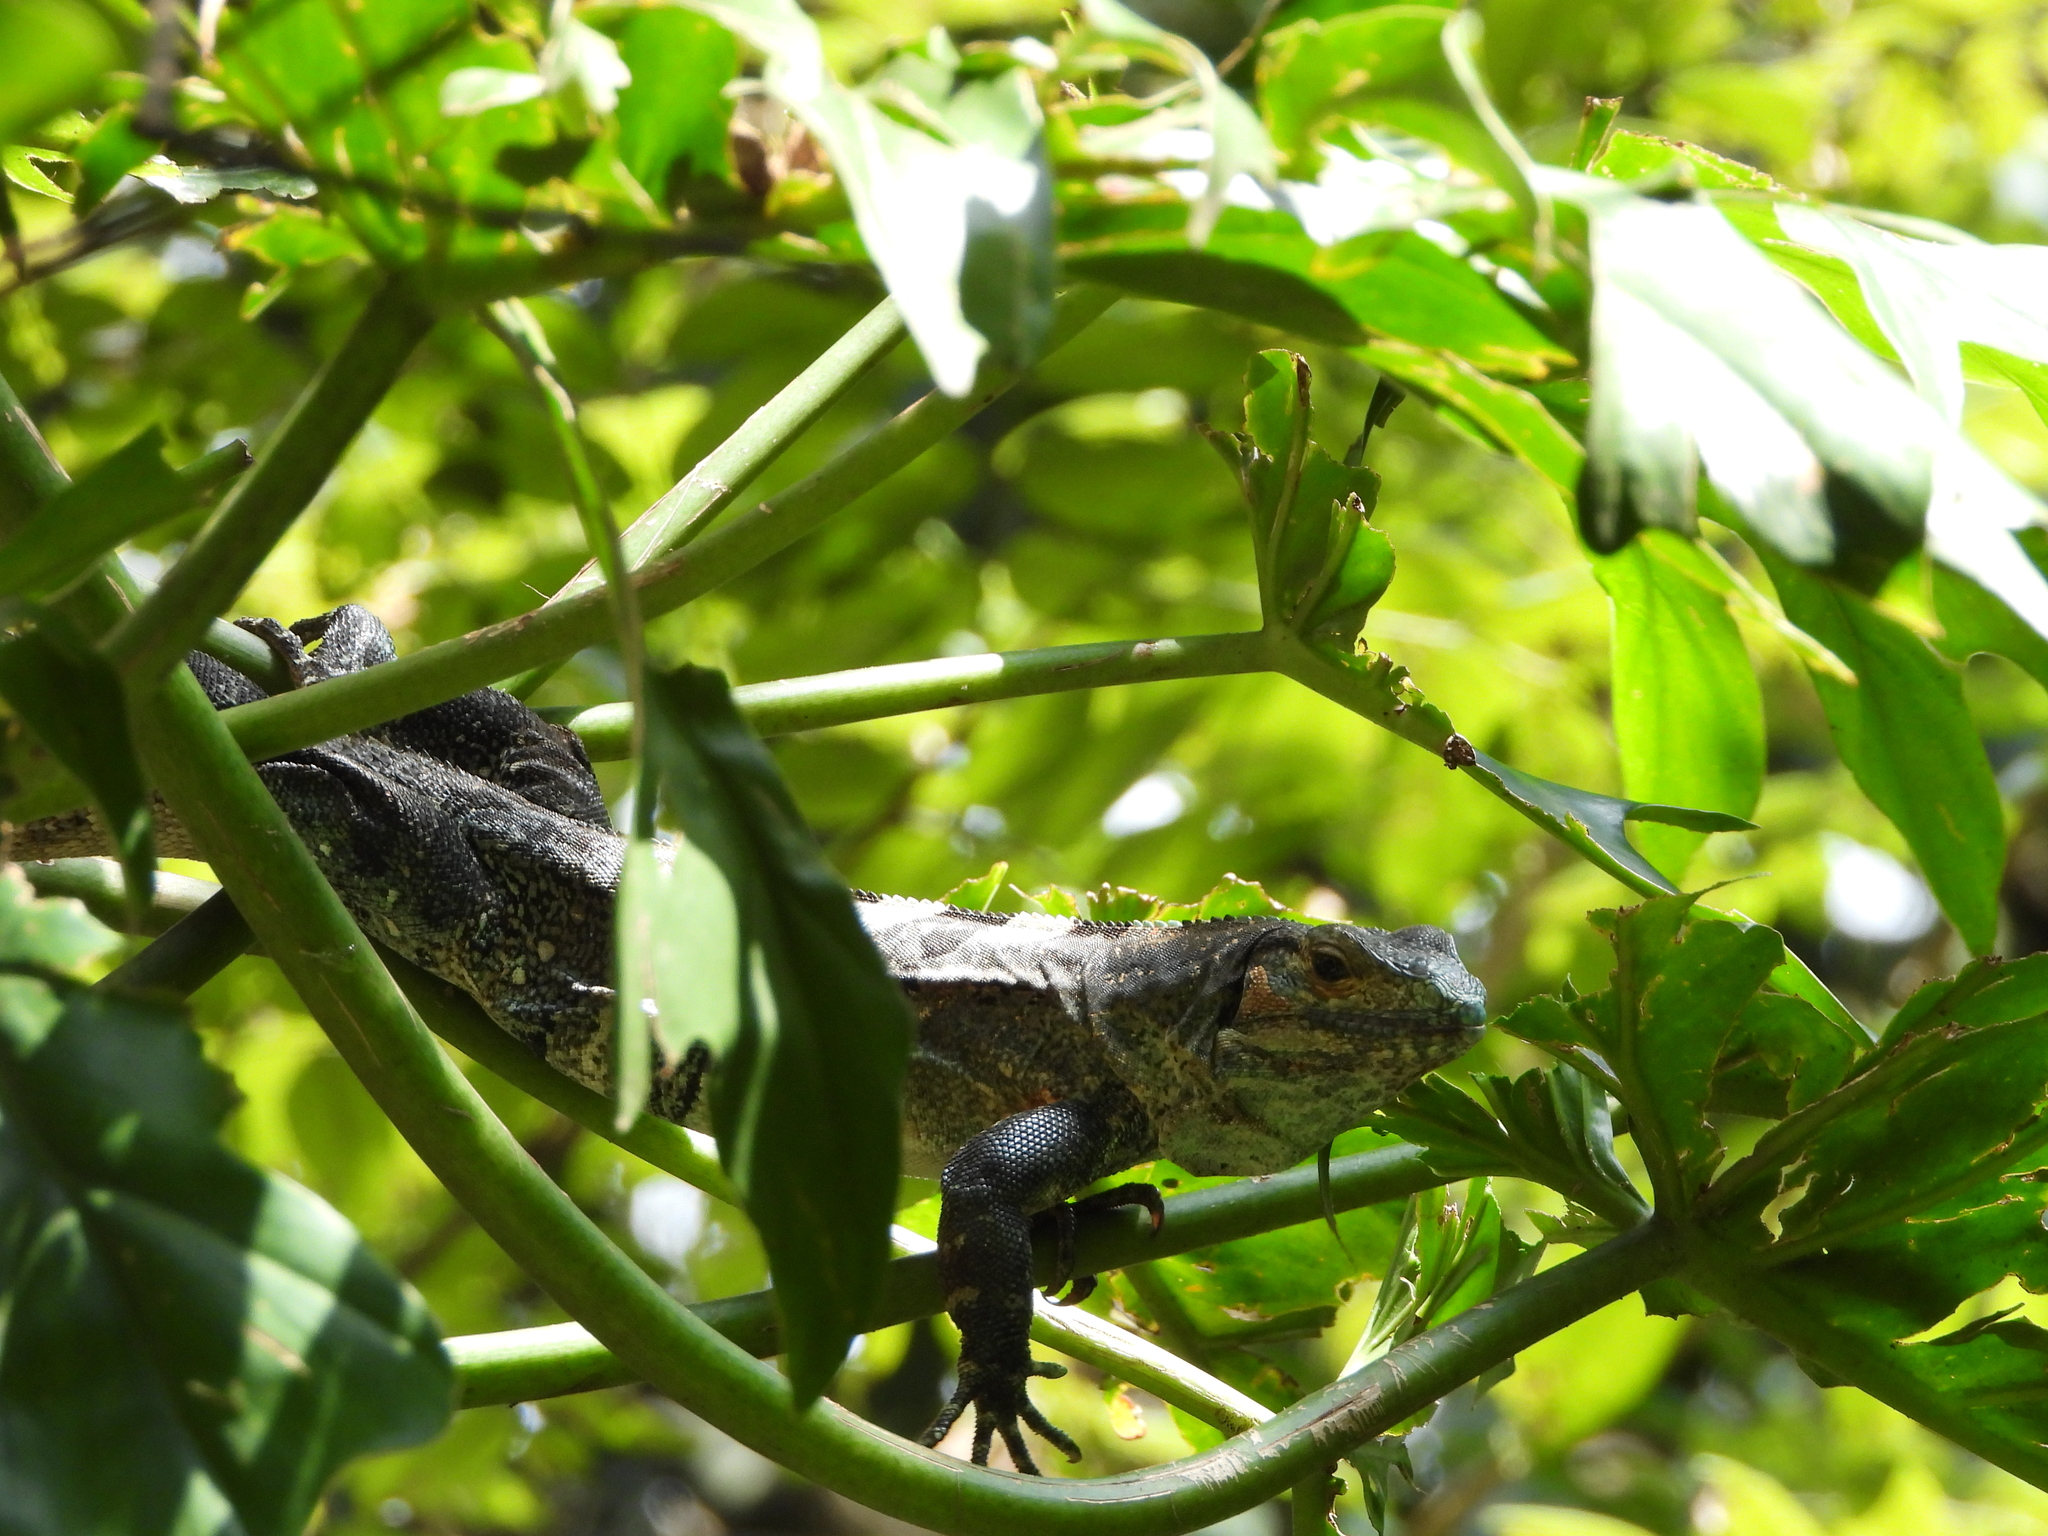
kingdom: Animalia
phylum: Chordata
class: Squamata
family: Iguanidae
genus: Ctenosaura
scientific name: Ctenosaura similis
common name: Black spiny-tailed iguana
